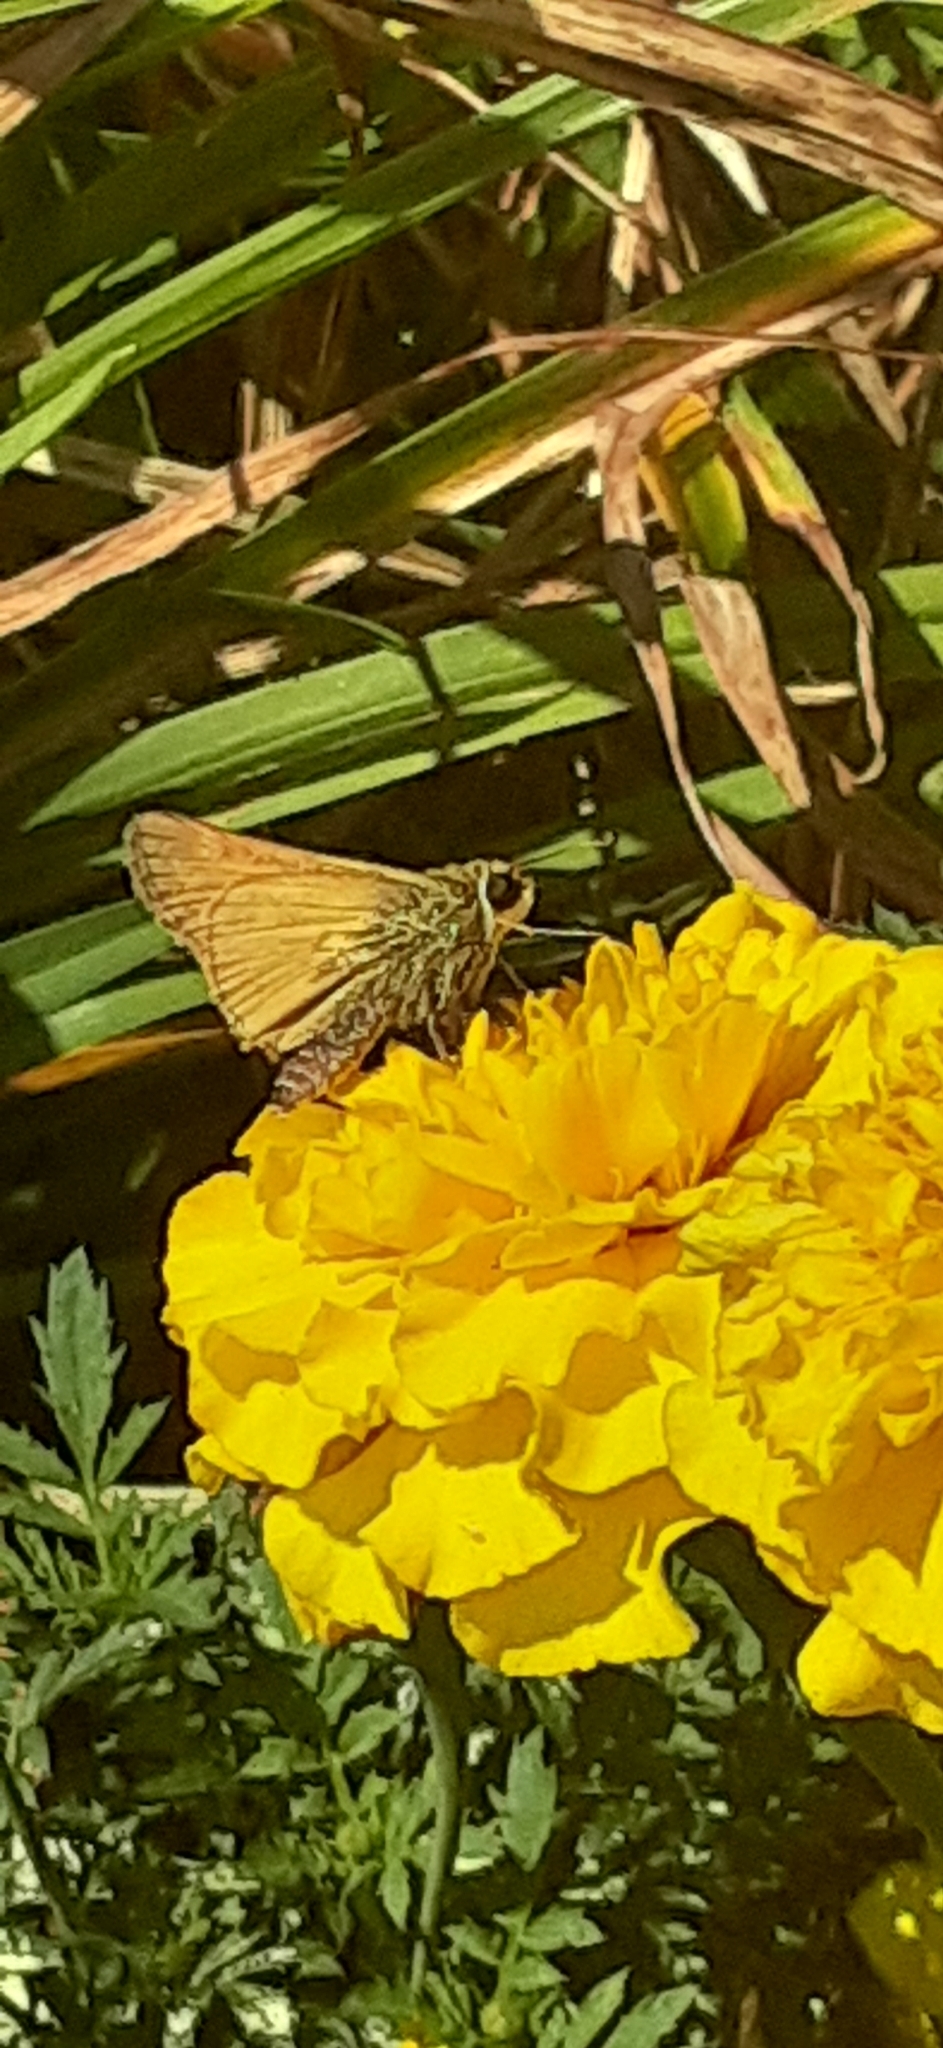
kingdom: Animalia
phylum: Arthropoda
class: Insecta
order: Lepidoptera
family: Hesperiidae
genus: Atalopedes
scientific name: Atalopedes
